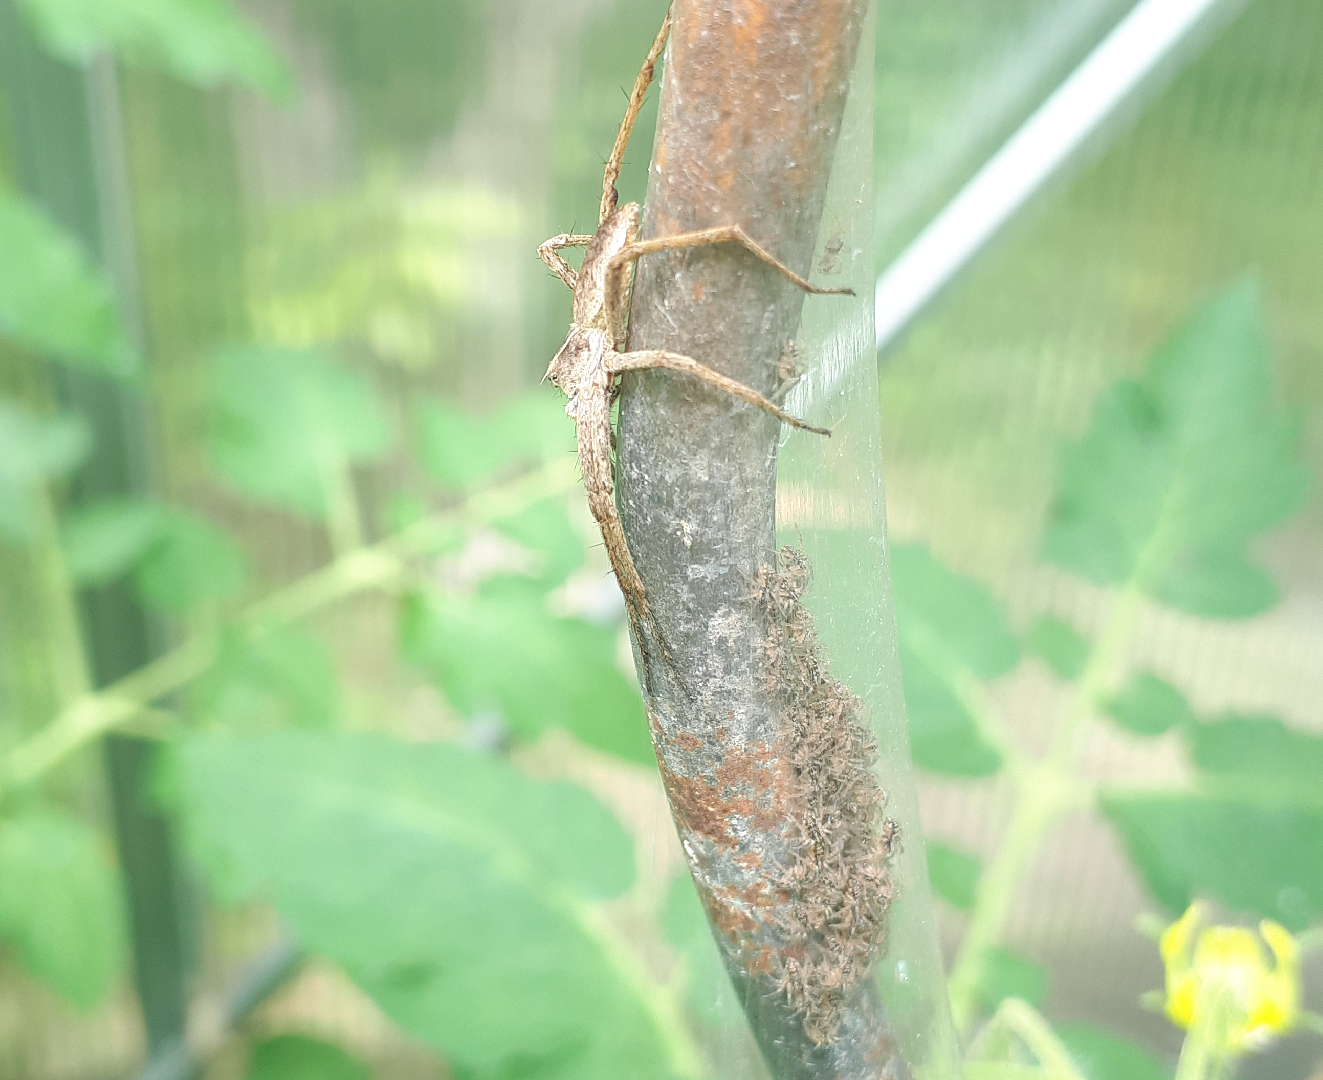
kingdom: Animalia
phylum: Arthropoda
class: Arachnida
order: Araneae
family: Pisauridae
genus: Pisaura
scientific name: Pisaura mirabilis
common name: Tent spider
